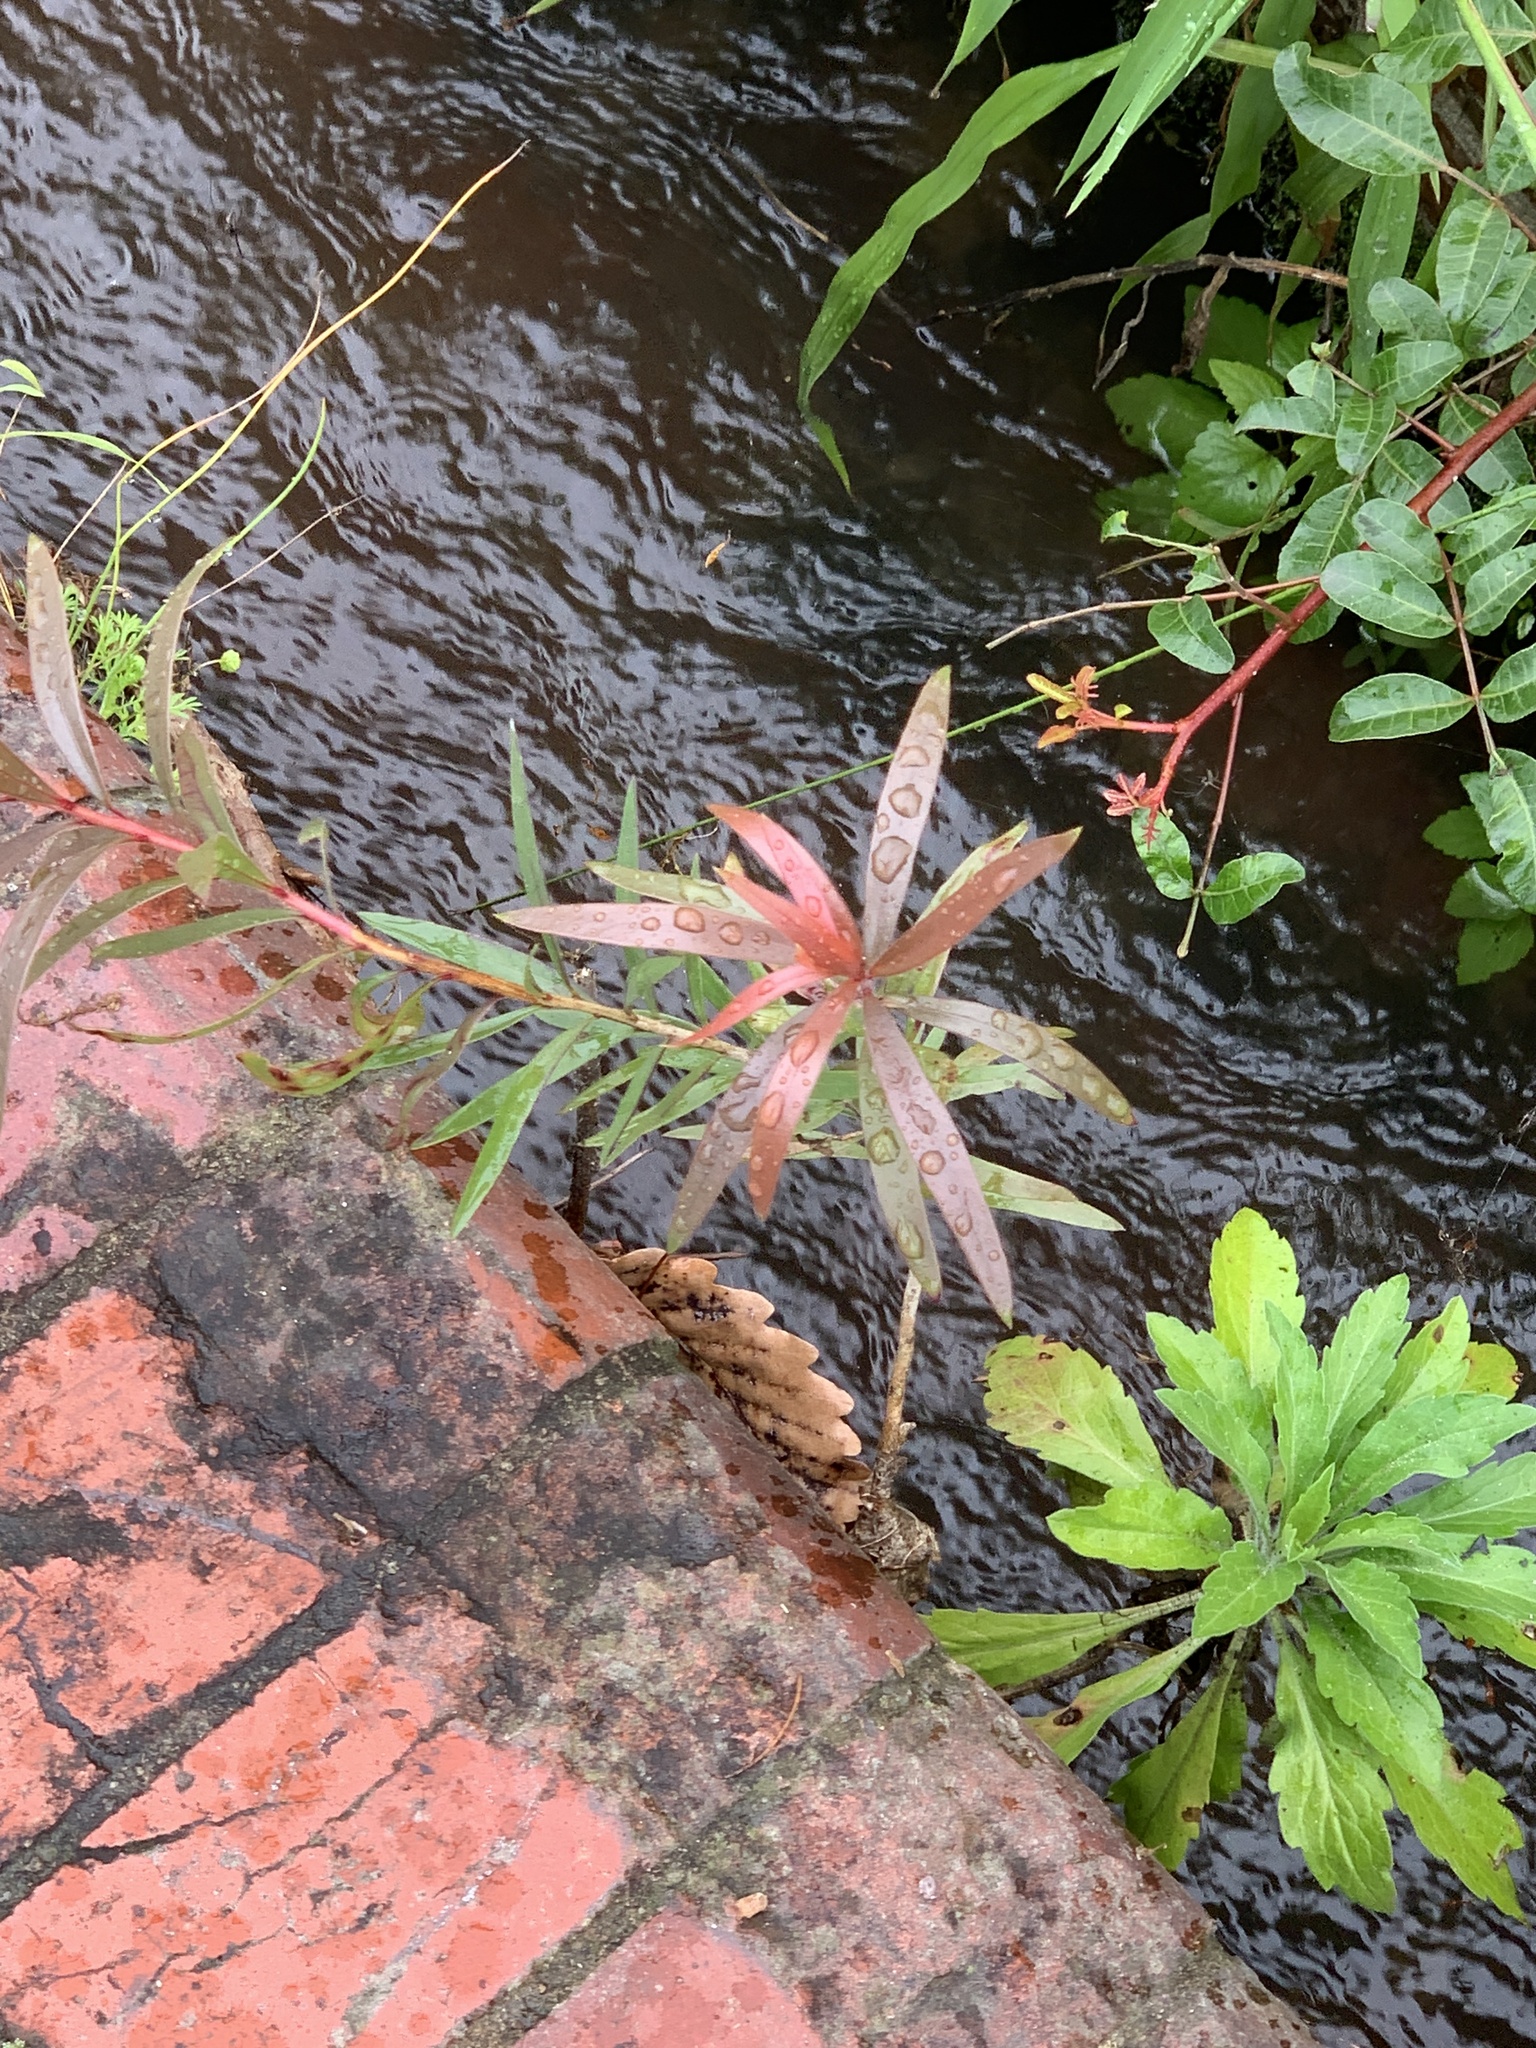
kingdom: Plantae
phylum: Tracheophyta
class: Magnoliopsida
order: Myrtales
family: Myrtaceae
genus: Callistemon
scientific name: Callistemon viminalis
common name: Drooping bottlebrush
